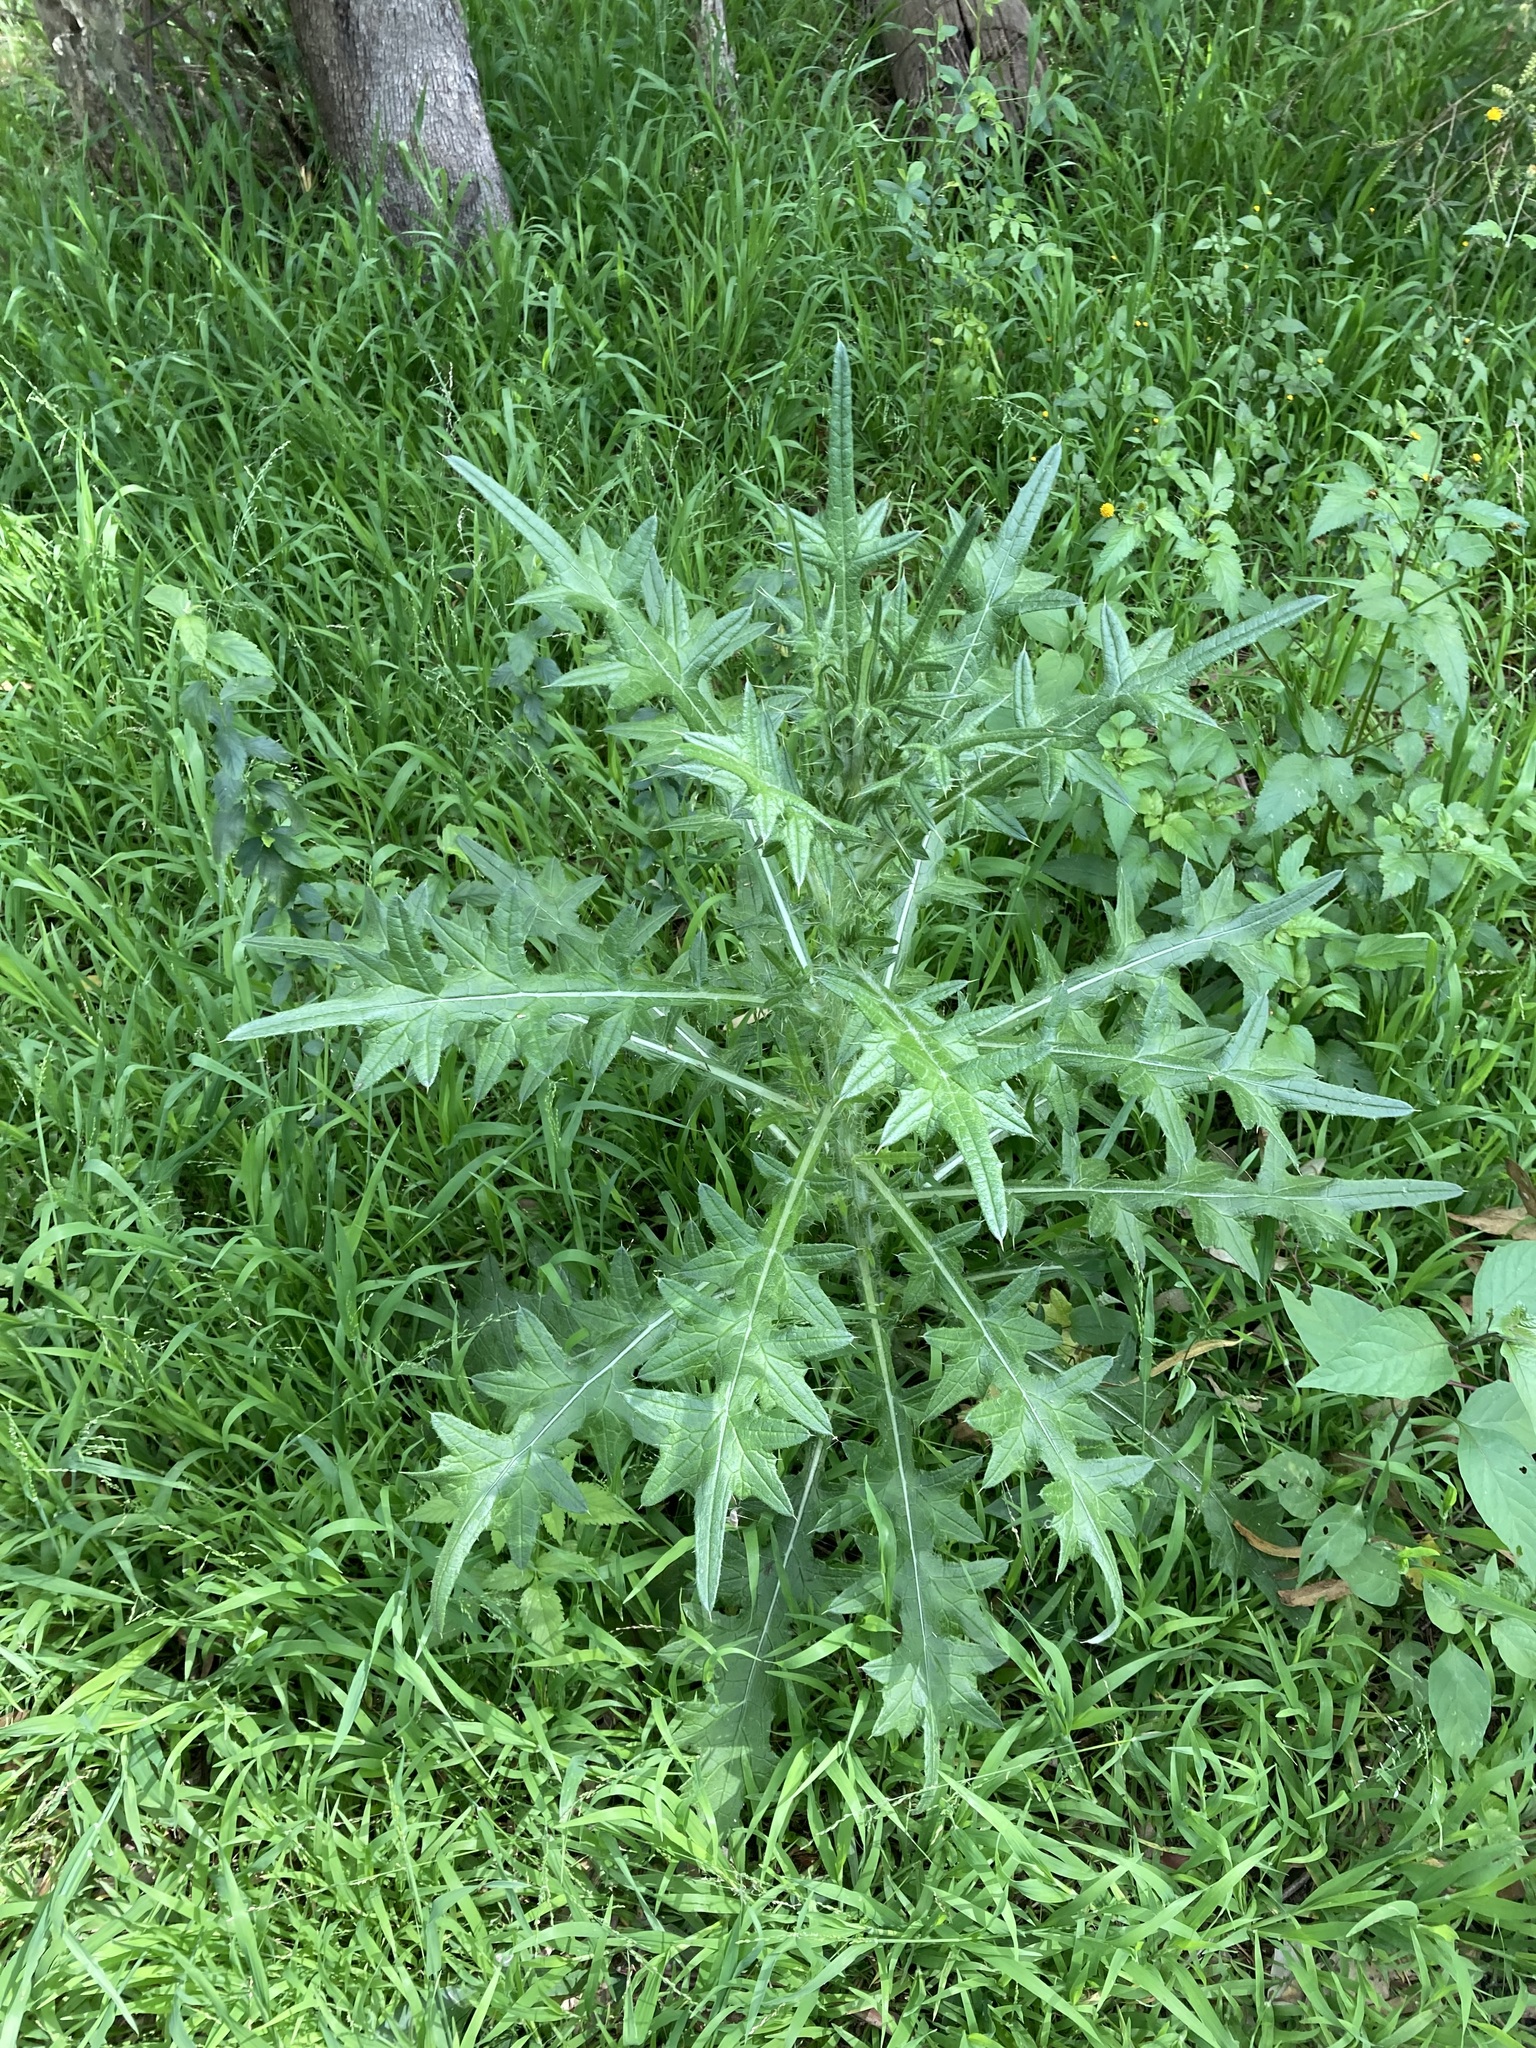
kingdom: Plantae
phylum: Tracheophyta
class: Magnoliopsida
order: Asterales
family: Asteraceae
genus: Cirsium
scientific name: Cirsium vulgare
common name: Bull thistle
